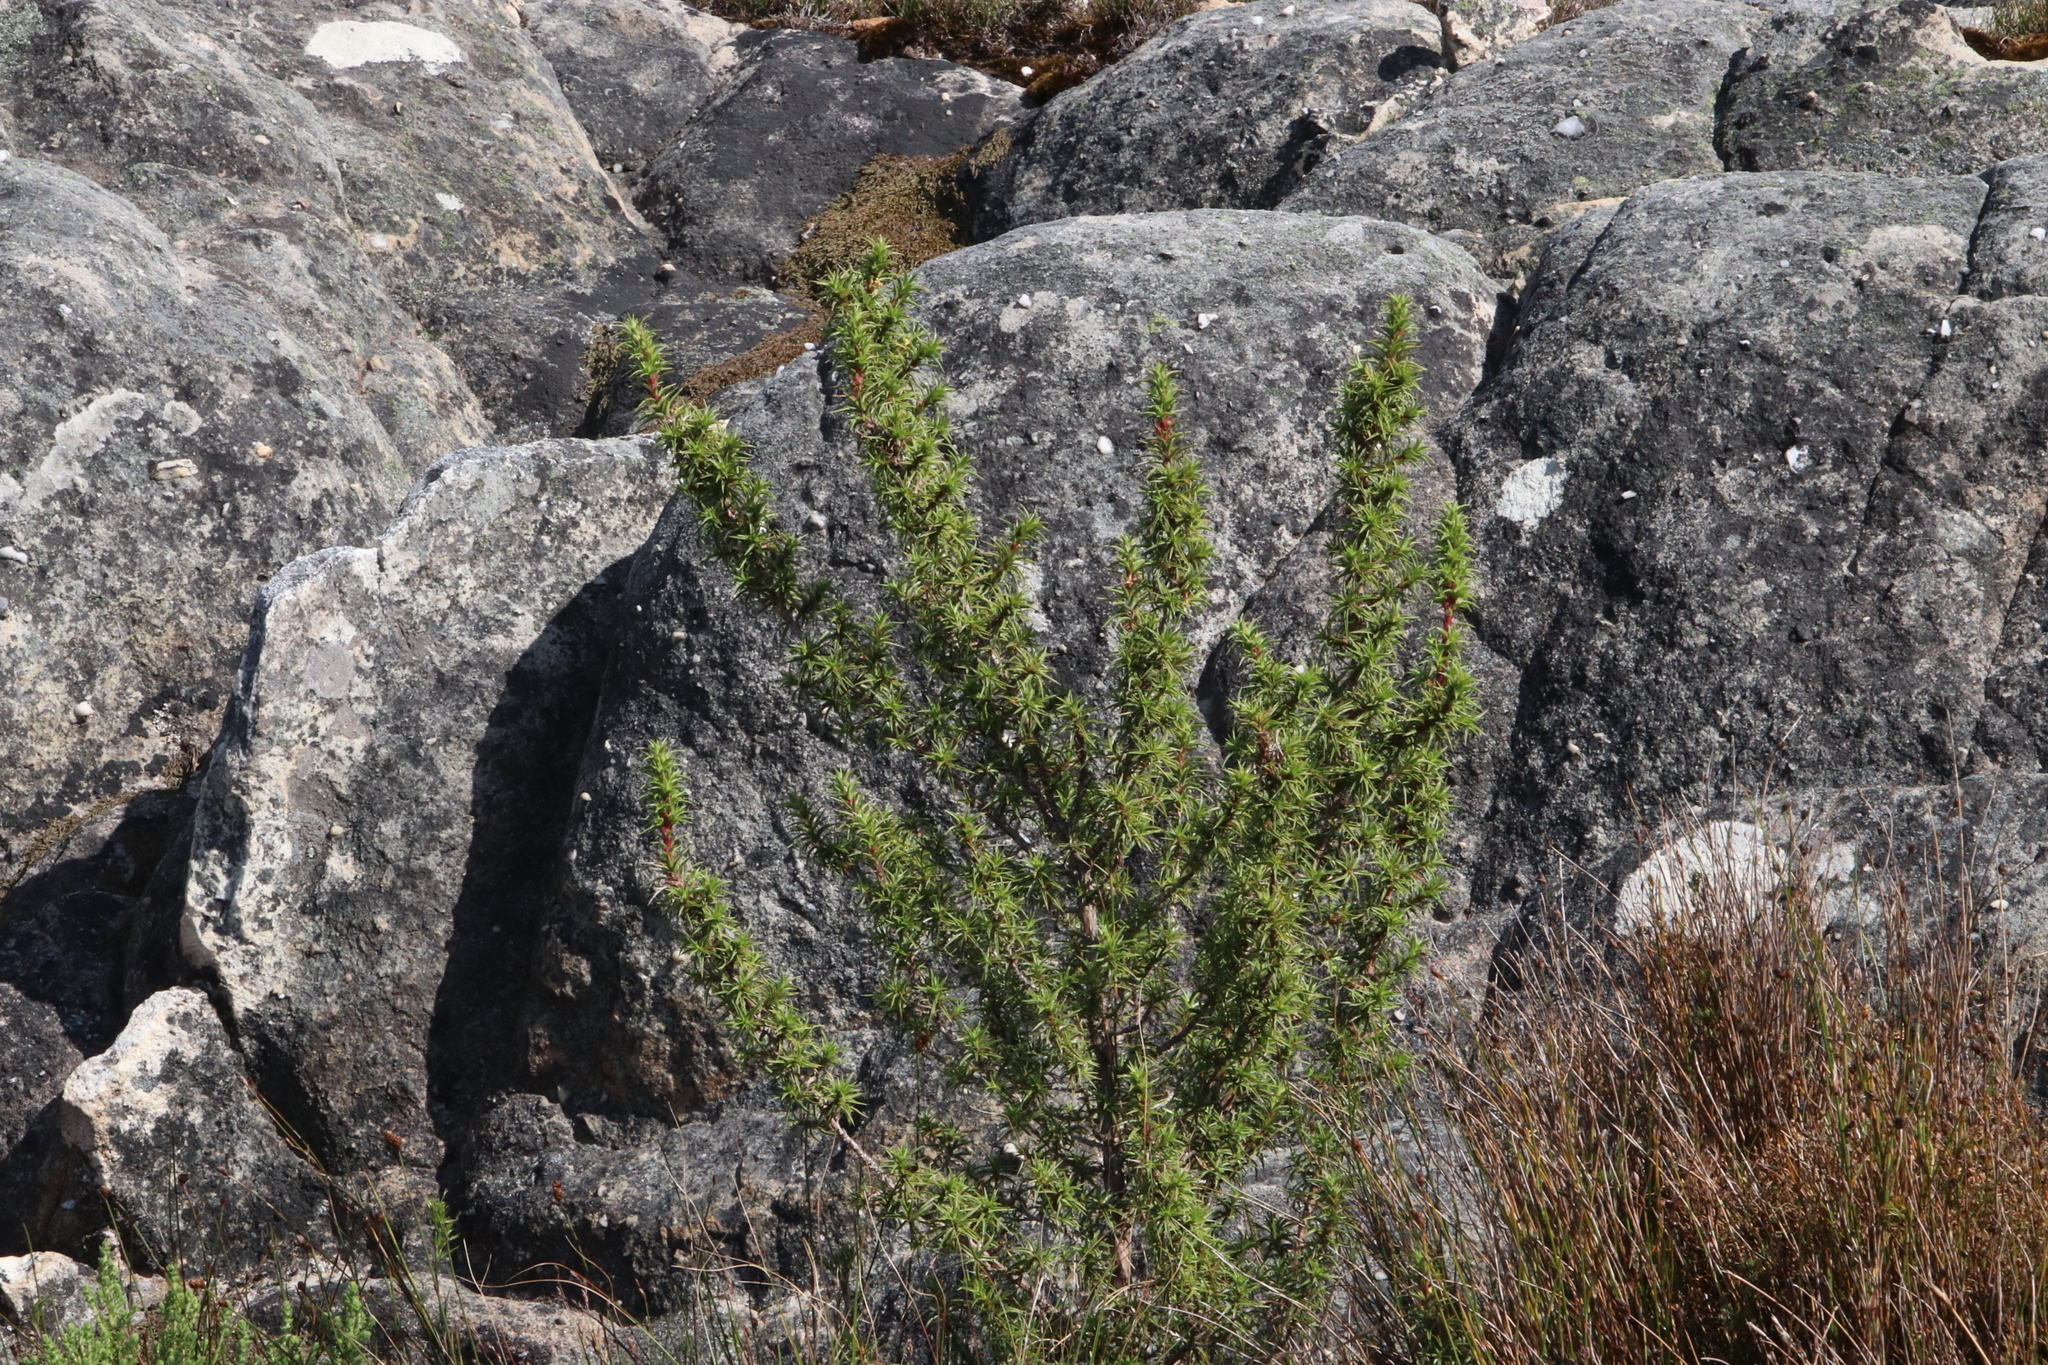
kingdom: Plantae
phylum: Tracheophyta
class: Magnoliopsida
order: Rosales
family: Rosaceae
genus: Cliffortia
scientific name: Cliffortia dregeana
